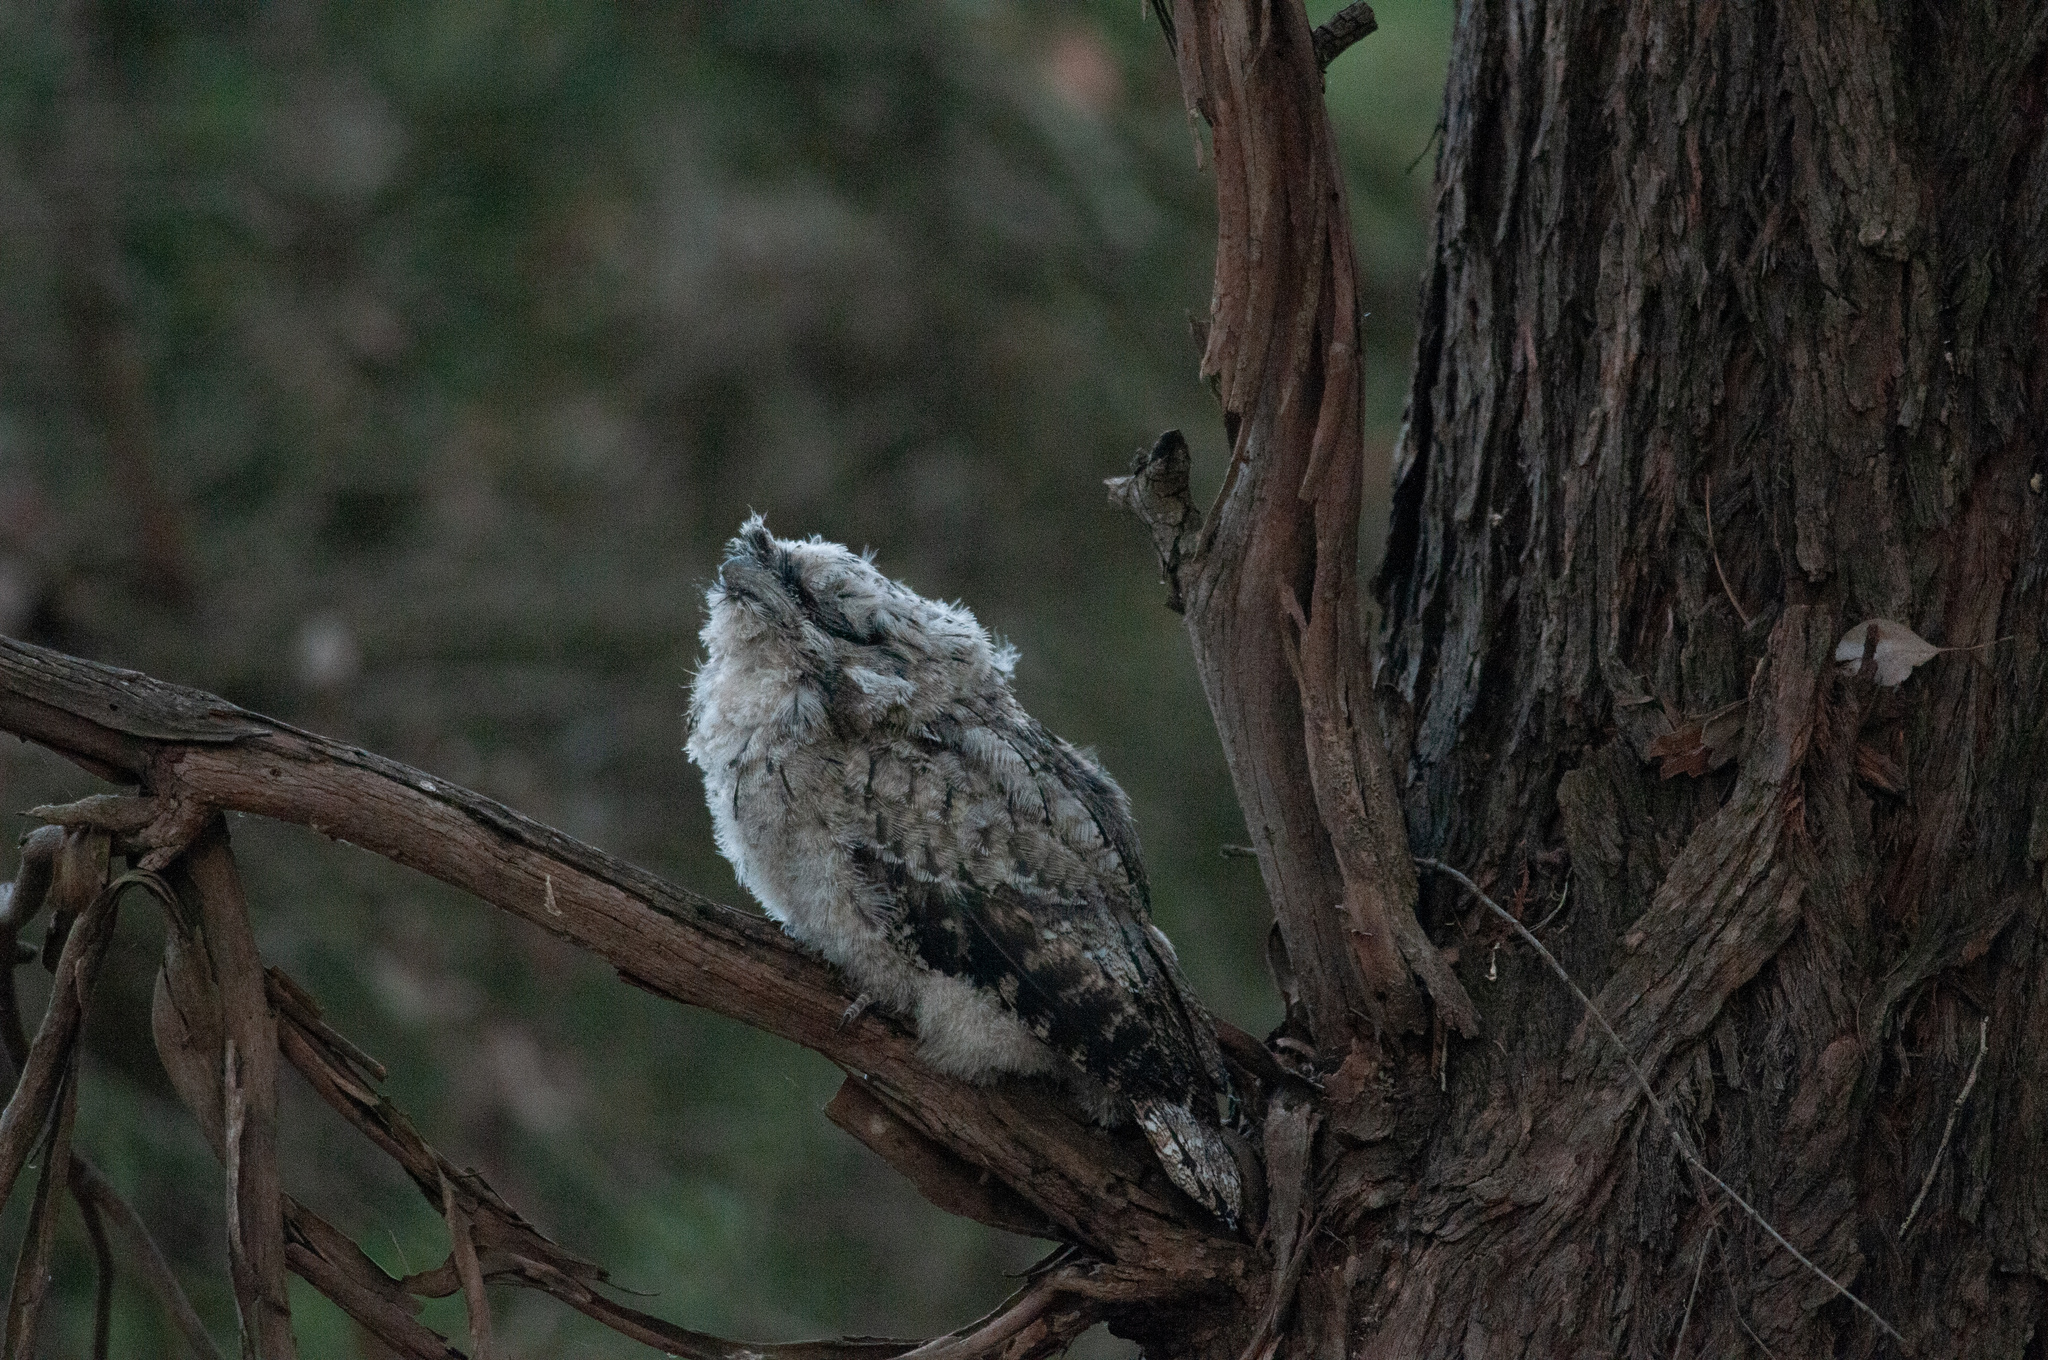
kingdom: Animalia
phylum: Chordata
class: Aves
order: Caprimulgiformes
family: Podargidae
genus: Podargus
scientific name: Podargus strigoides
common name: Tawny frogmouth
